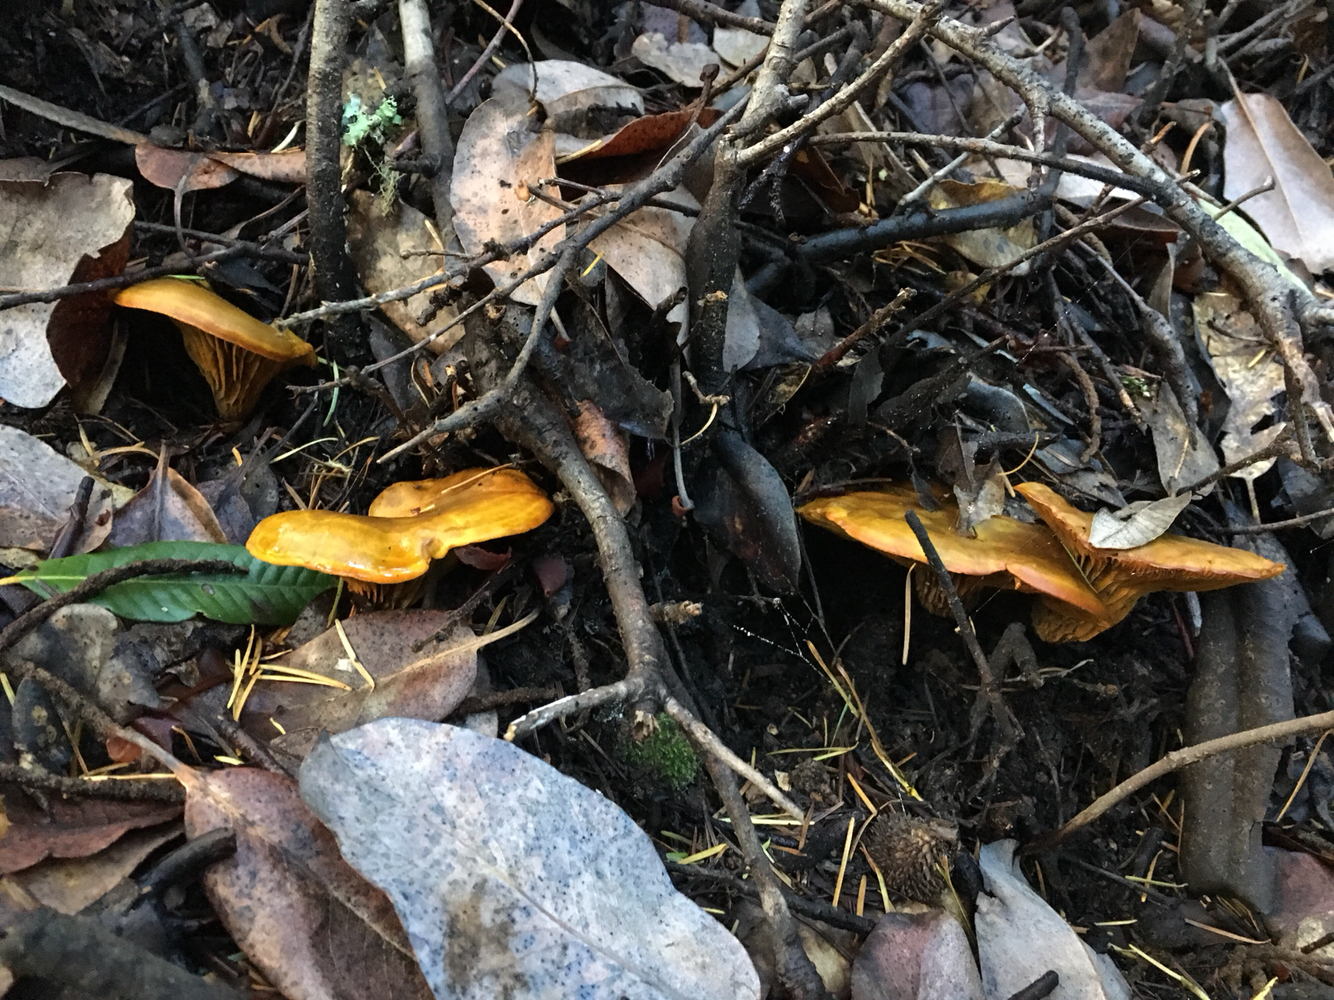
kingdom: Fungi
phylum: Basidiomycota
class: Agaricomycetes
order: Agaricales
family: Omphalotaceae
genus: Omphalotus
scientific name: Omphalotus olivascens
